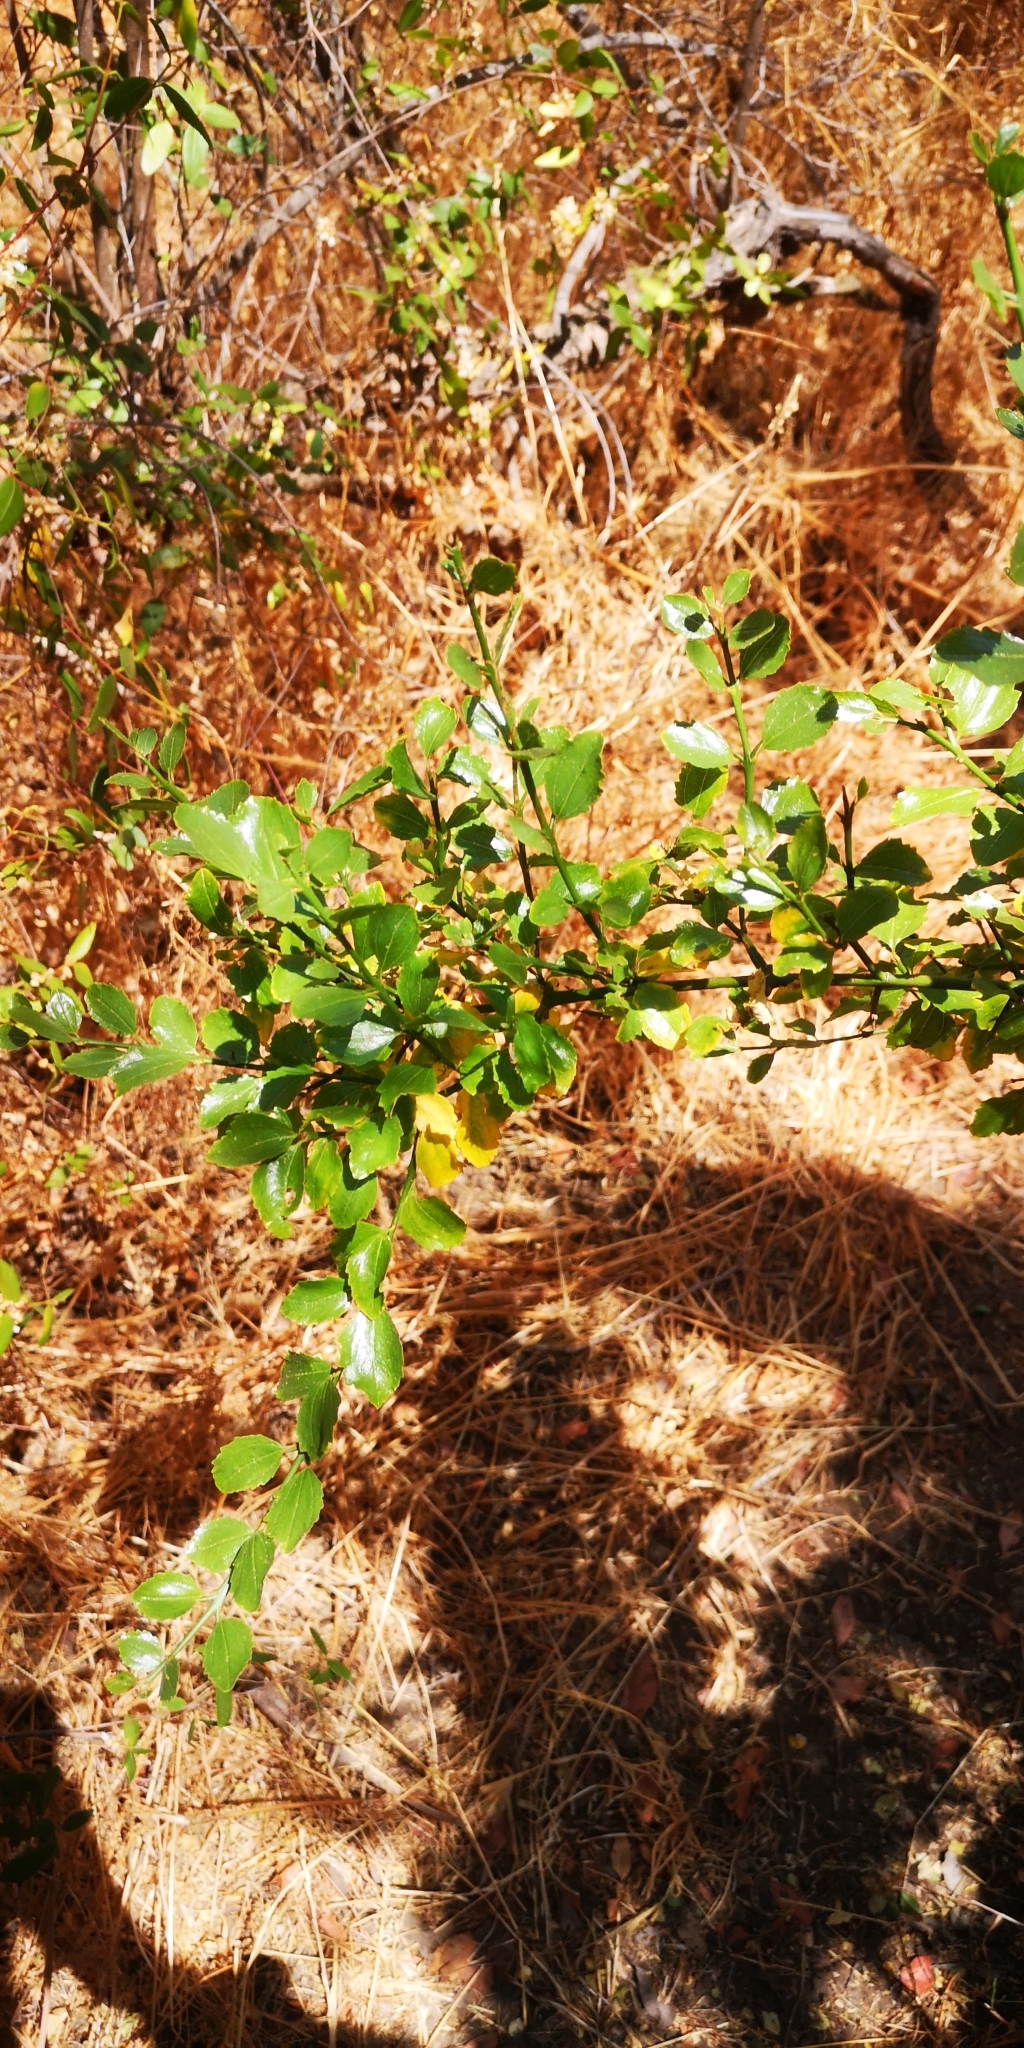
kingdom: Plantae
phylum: Tracheophyta
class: Magnoliopsida
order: Rosales
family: Rhamnaceae
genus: Retanilla
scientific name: Retanilla trinervia
